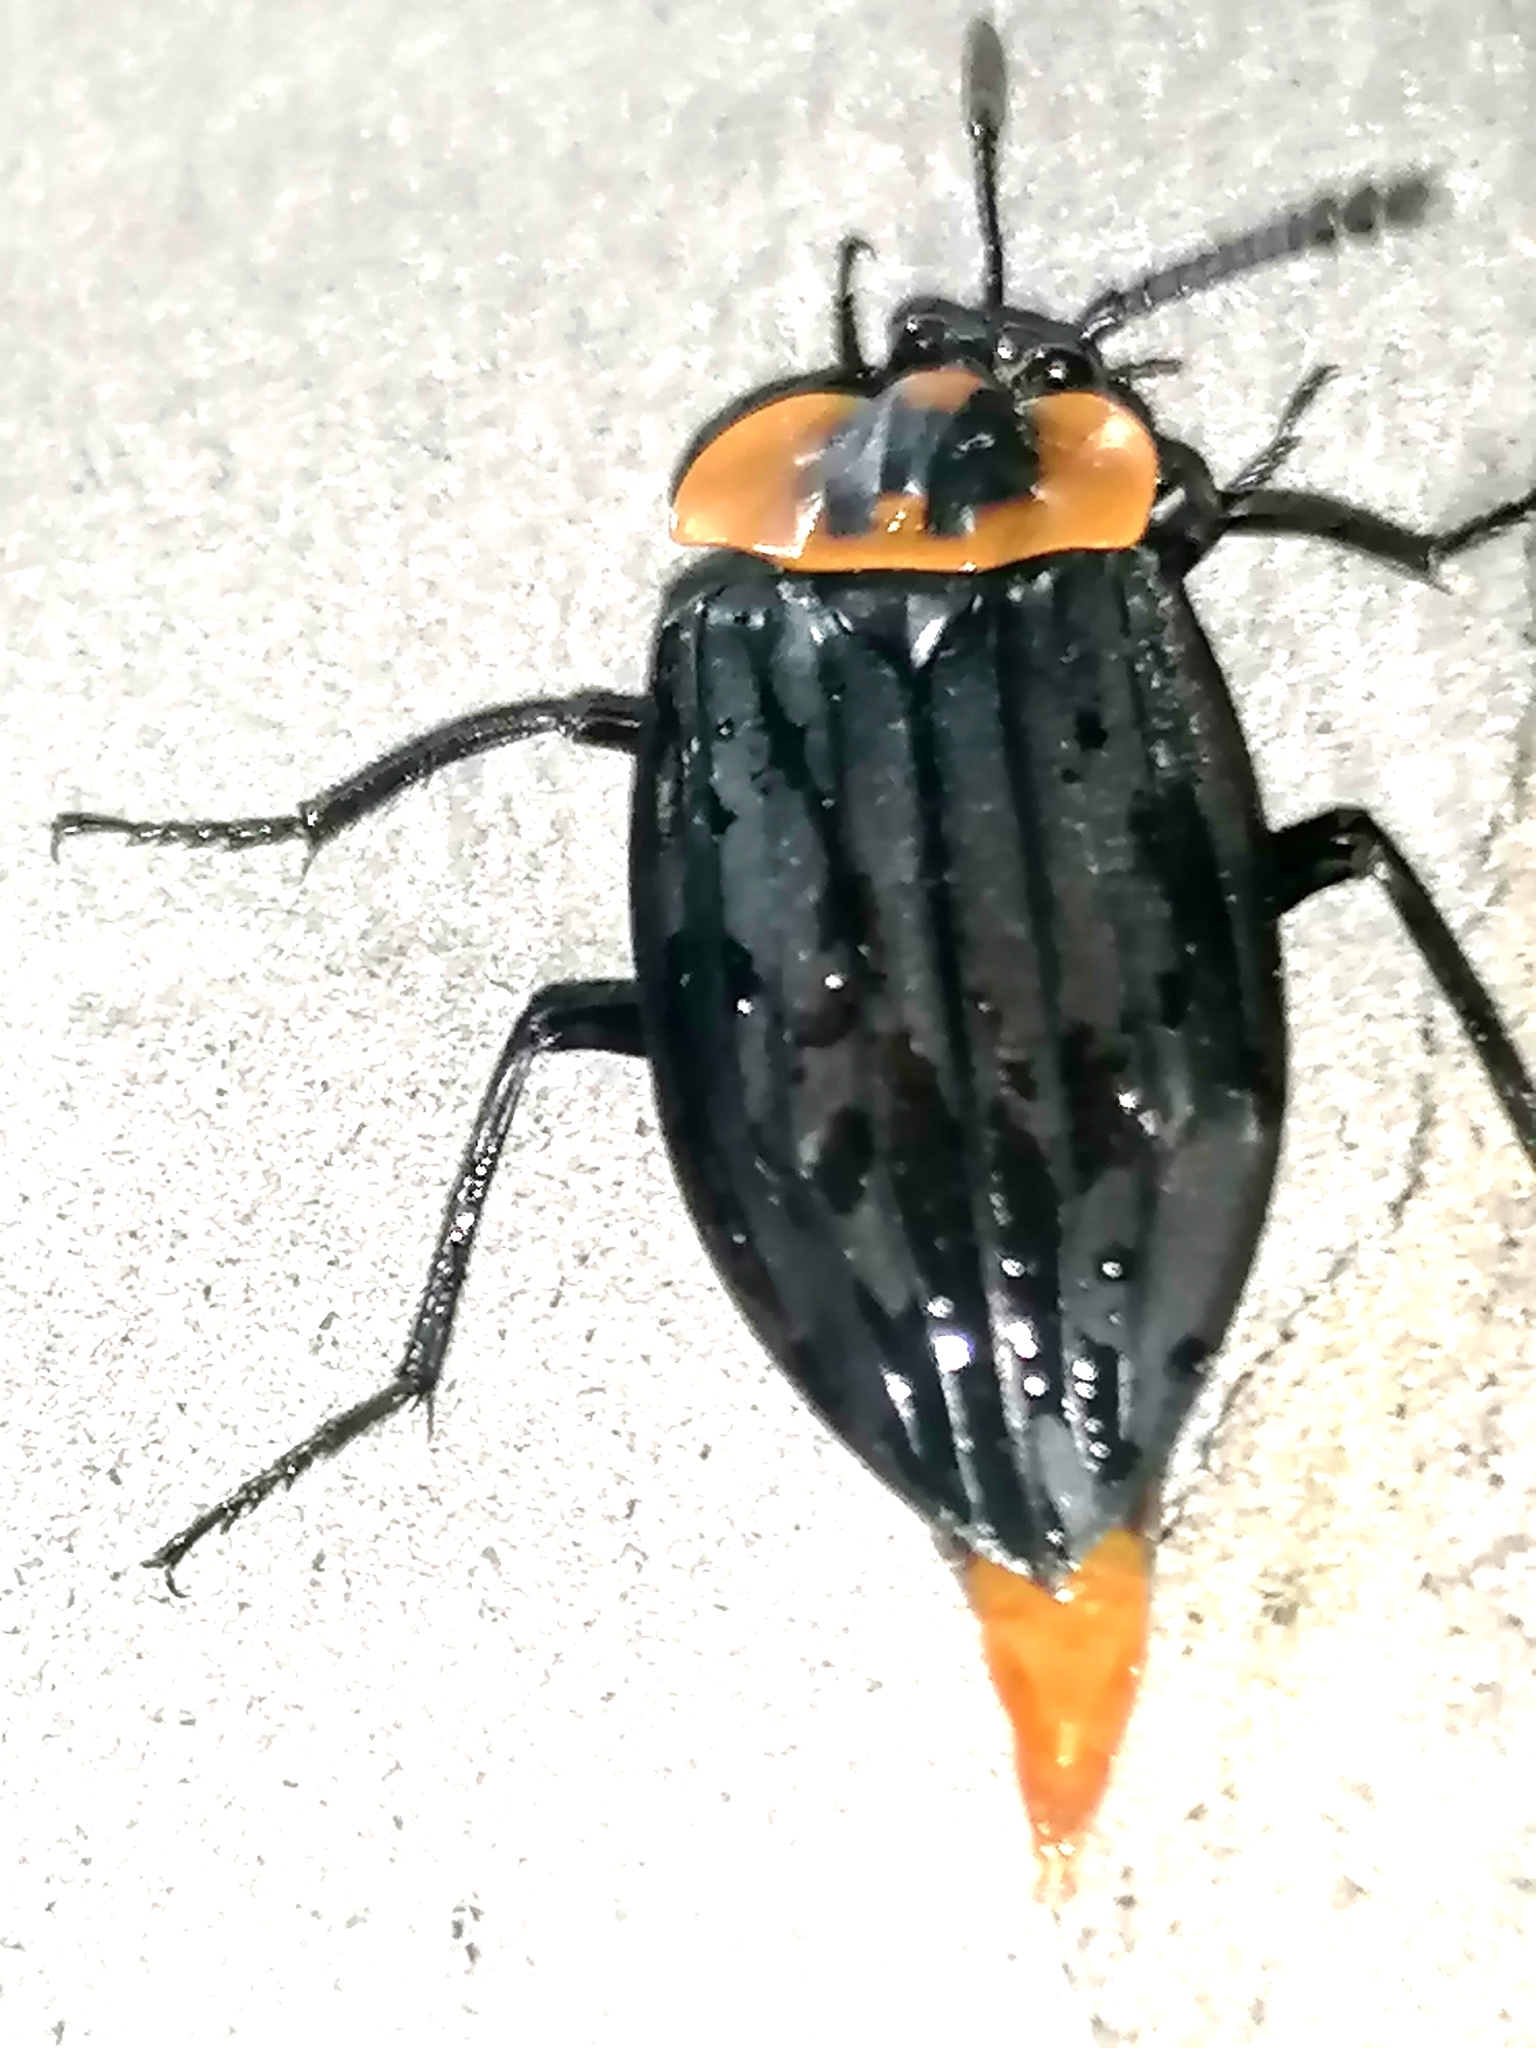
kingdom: Animalia
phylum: Arthropoda
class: Insecta
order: Coleoptera
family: Staphylinidae
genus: Oxelytrum
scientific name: Oxelytrum discicolle
